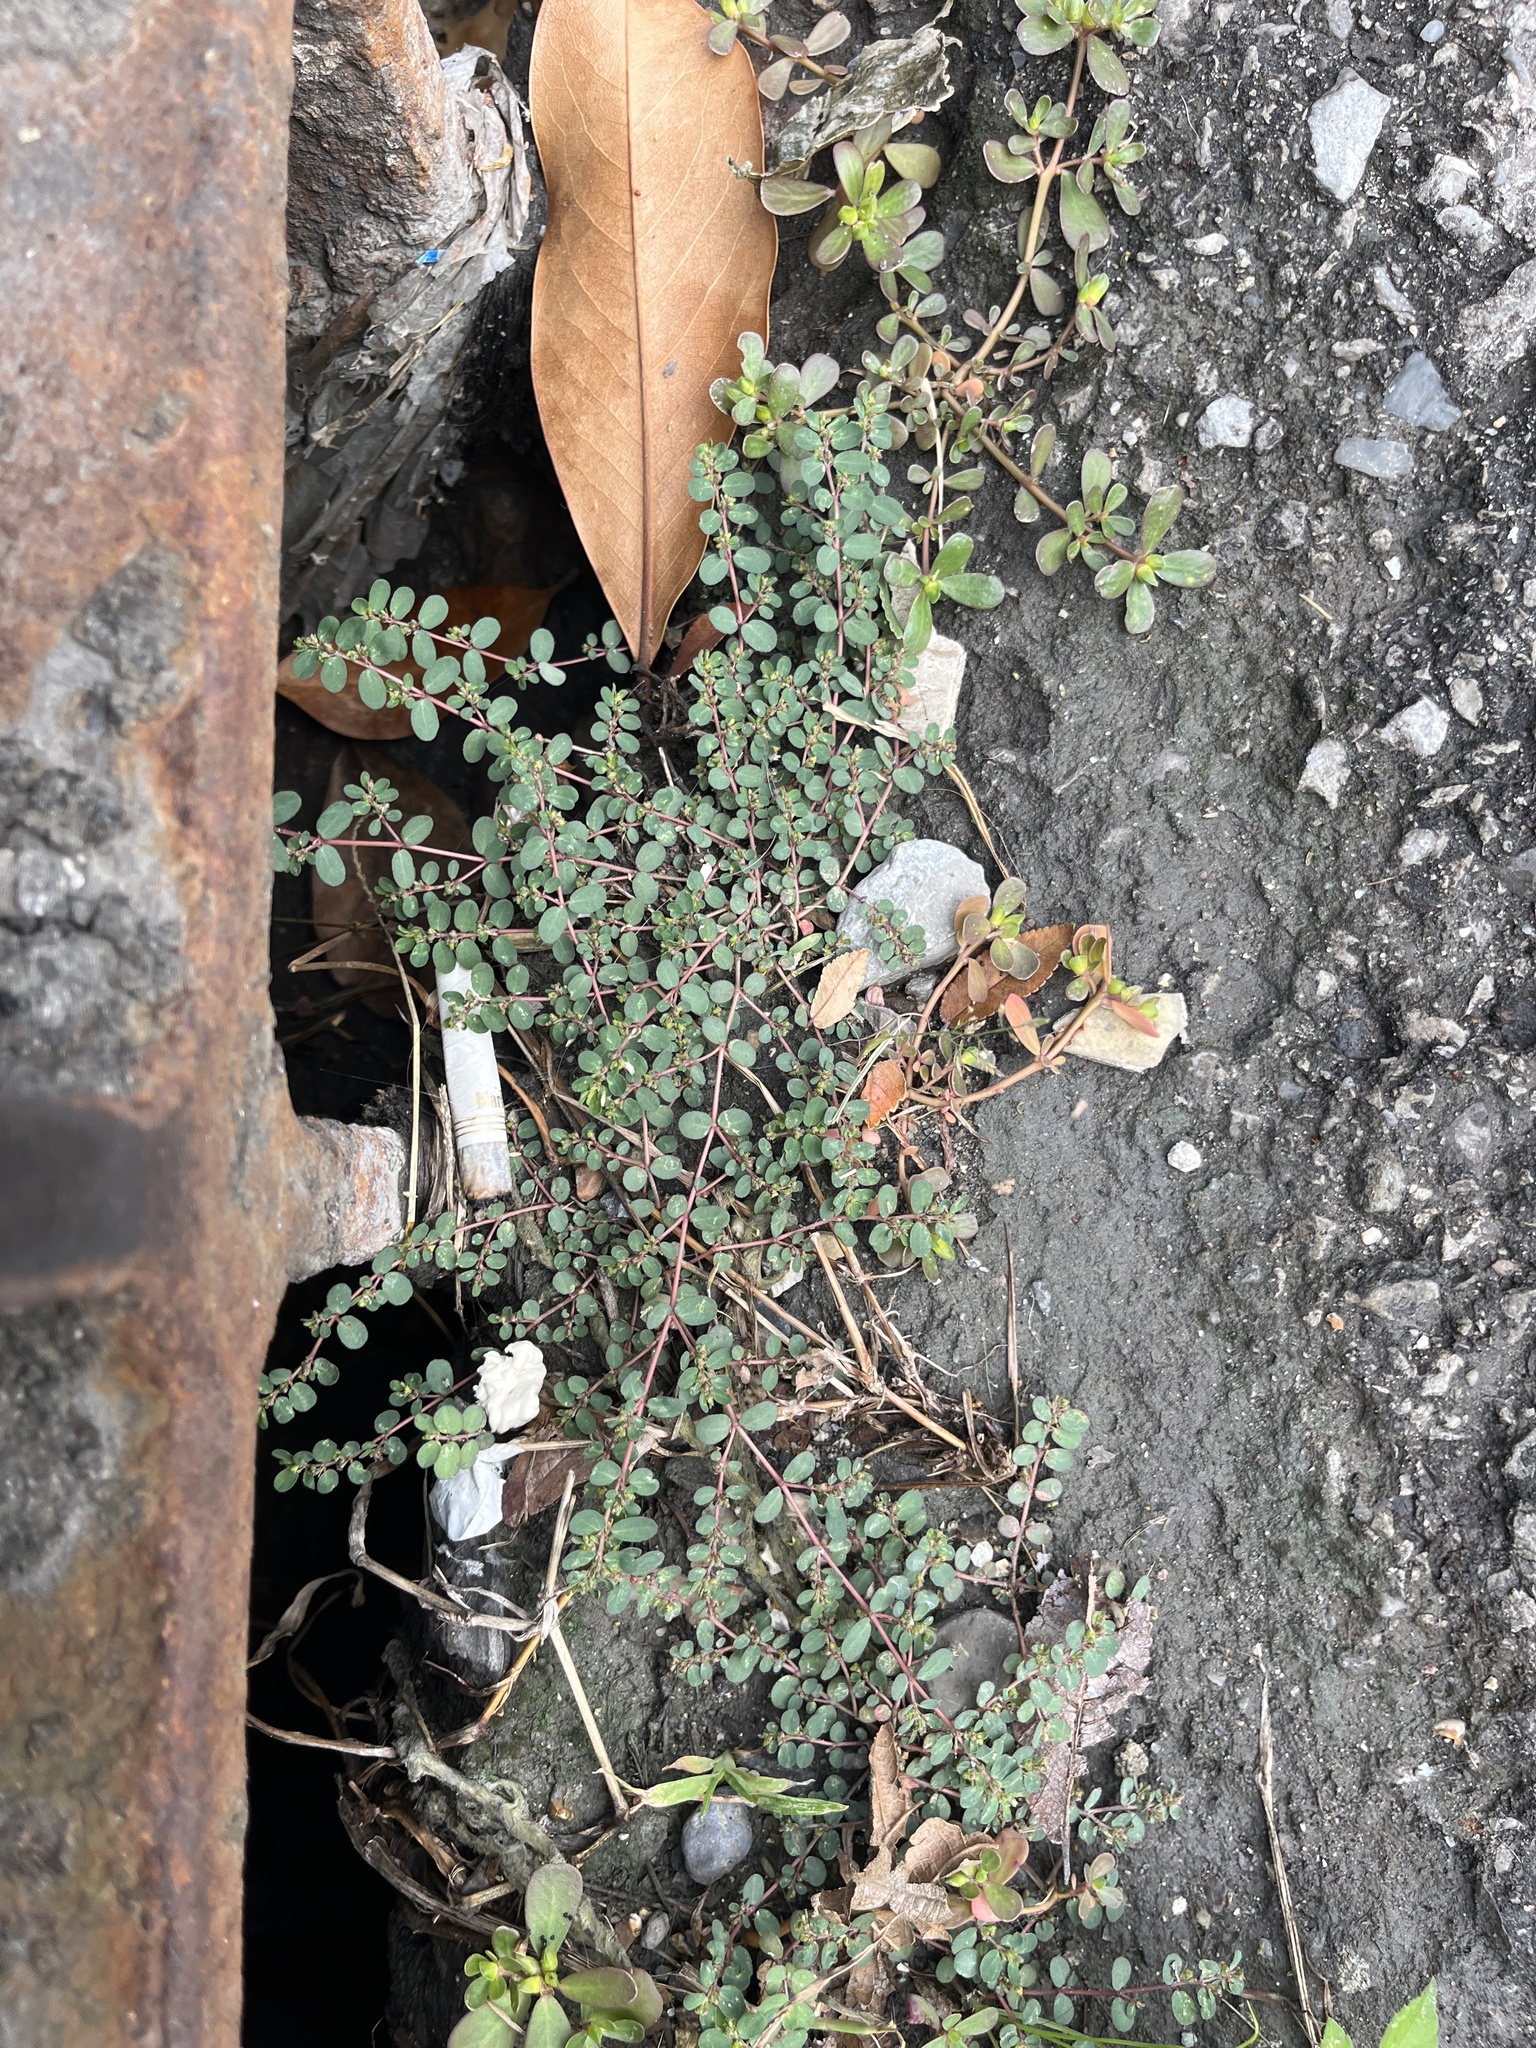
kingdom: Plantae
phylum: Tracheophyta
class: Magnoliopsida
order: Malpighiales
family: Euphorbiaceae
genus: Euphorbia
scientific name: Euphorbia prostrata
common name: Prostrate sandmat
